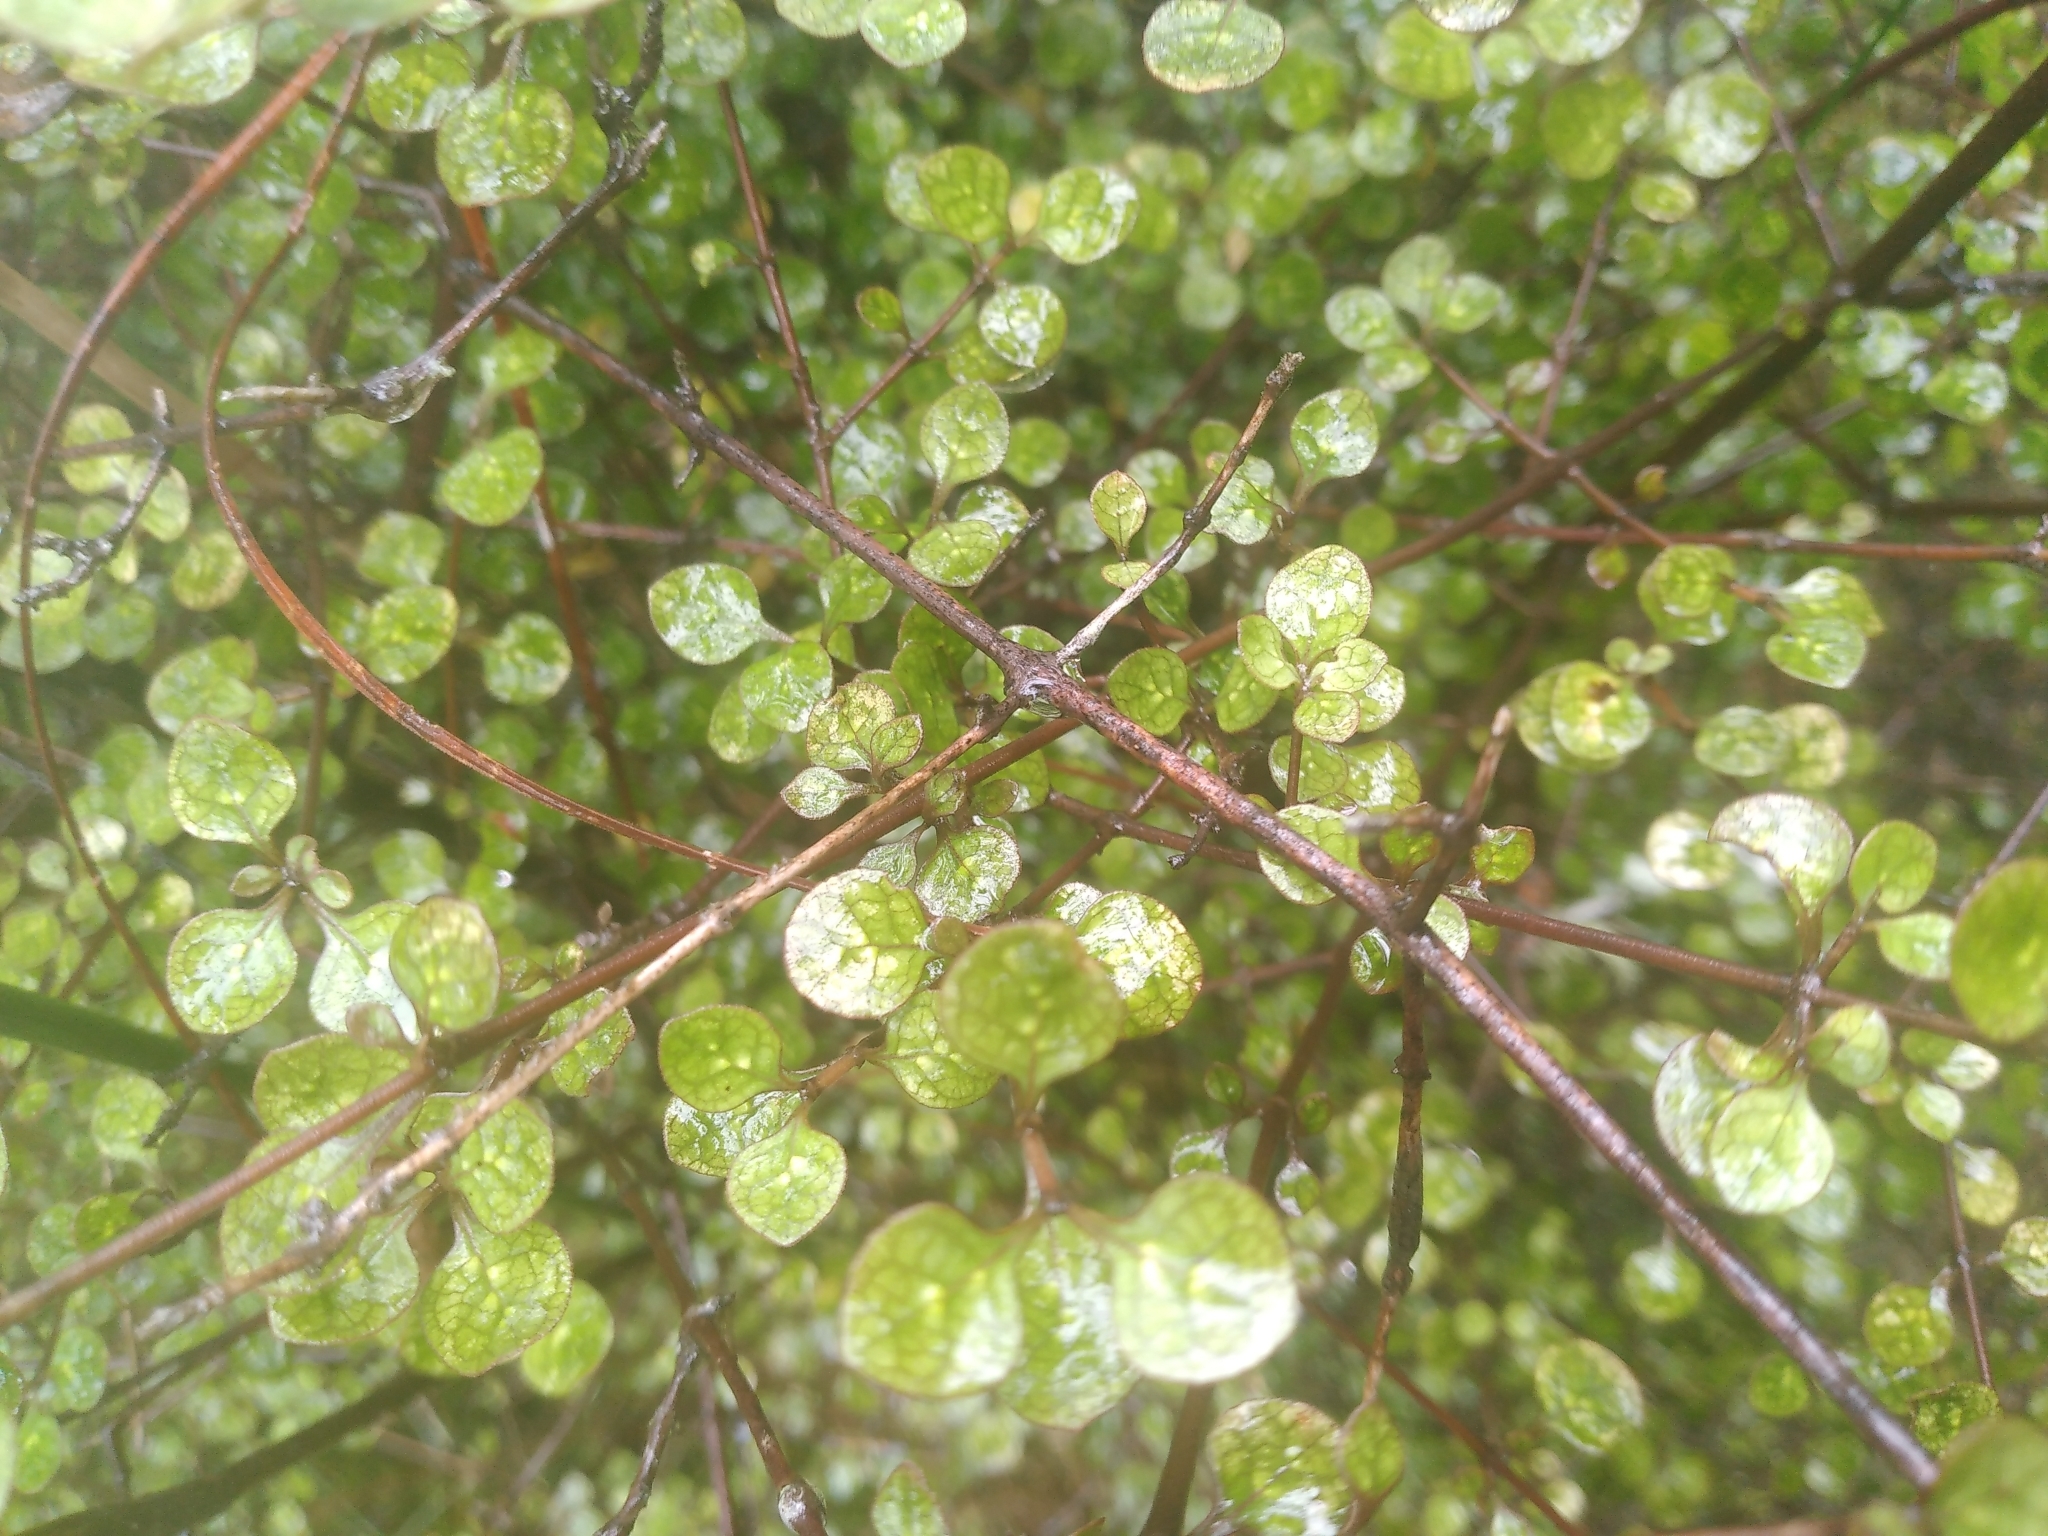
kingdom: Plantae
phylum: Tracheophyta
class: Magnoliopsida
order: Gentianales
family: Rubiaceae
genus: Coprosma
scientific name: Coprosma tenuicaulis
